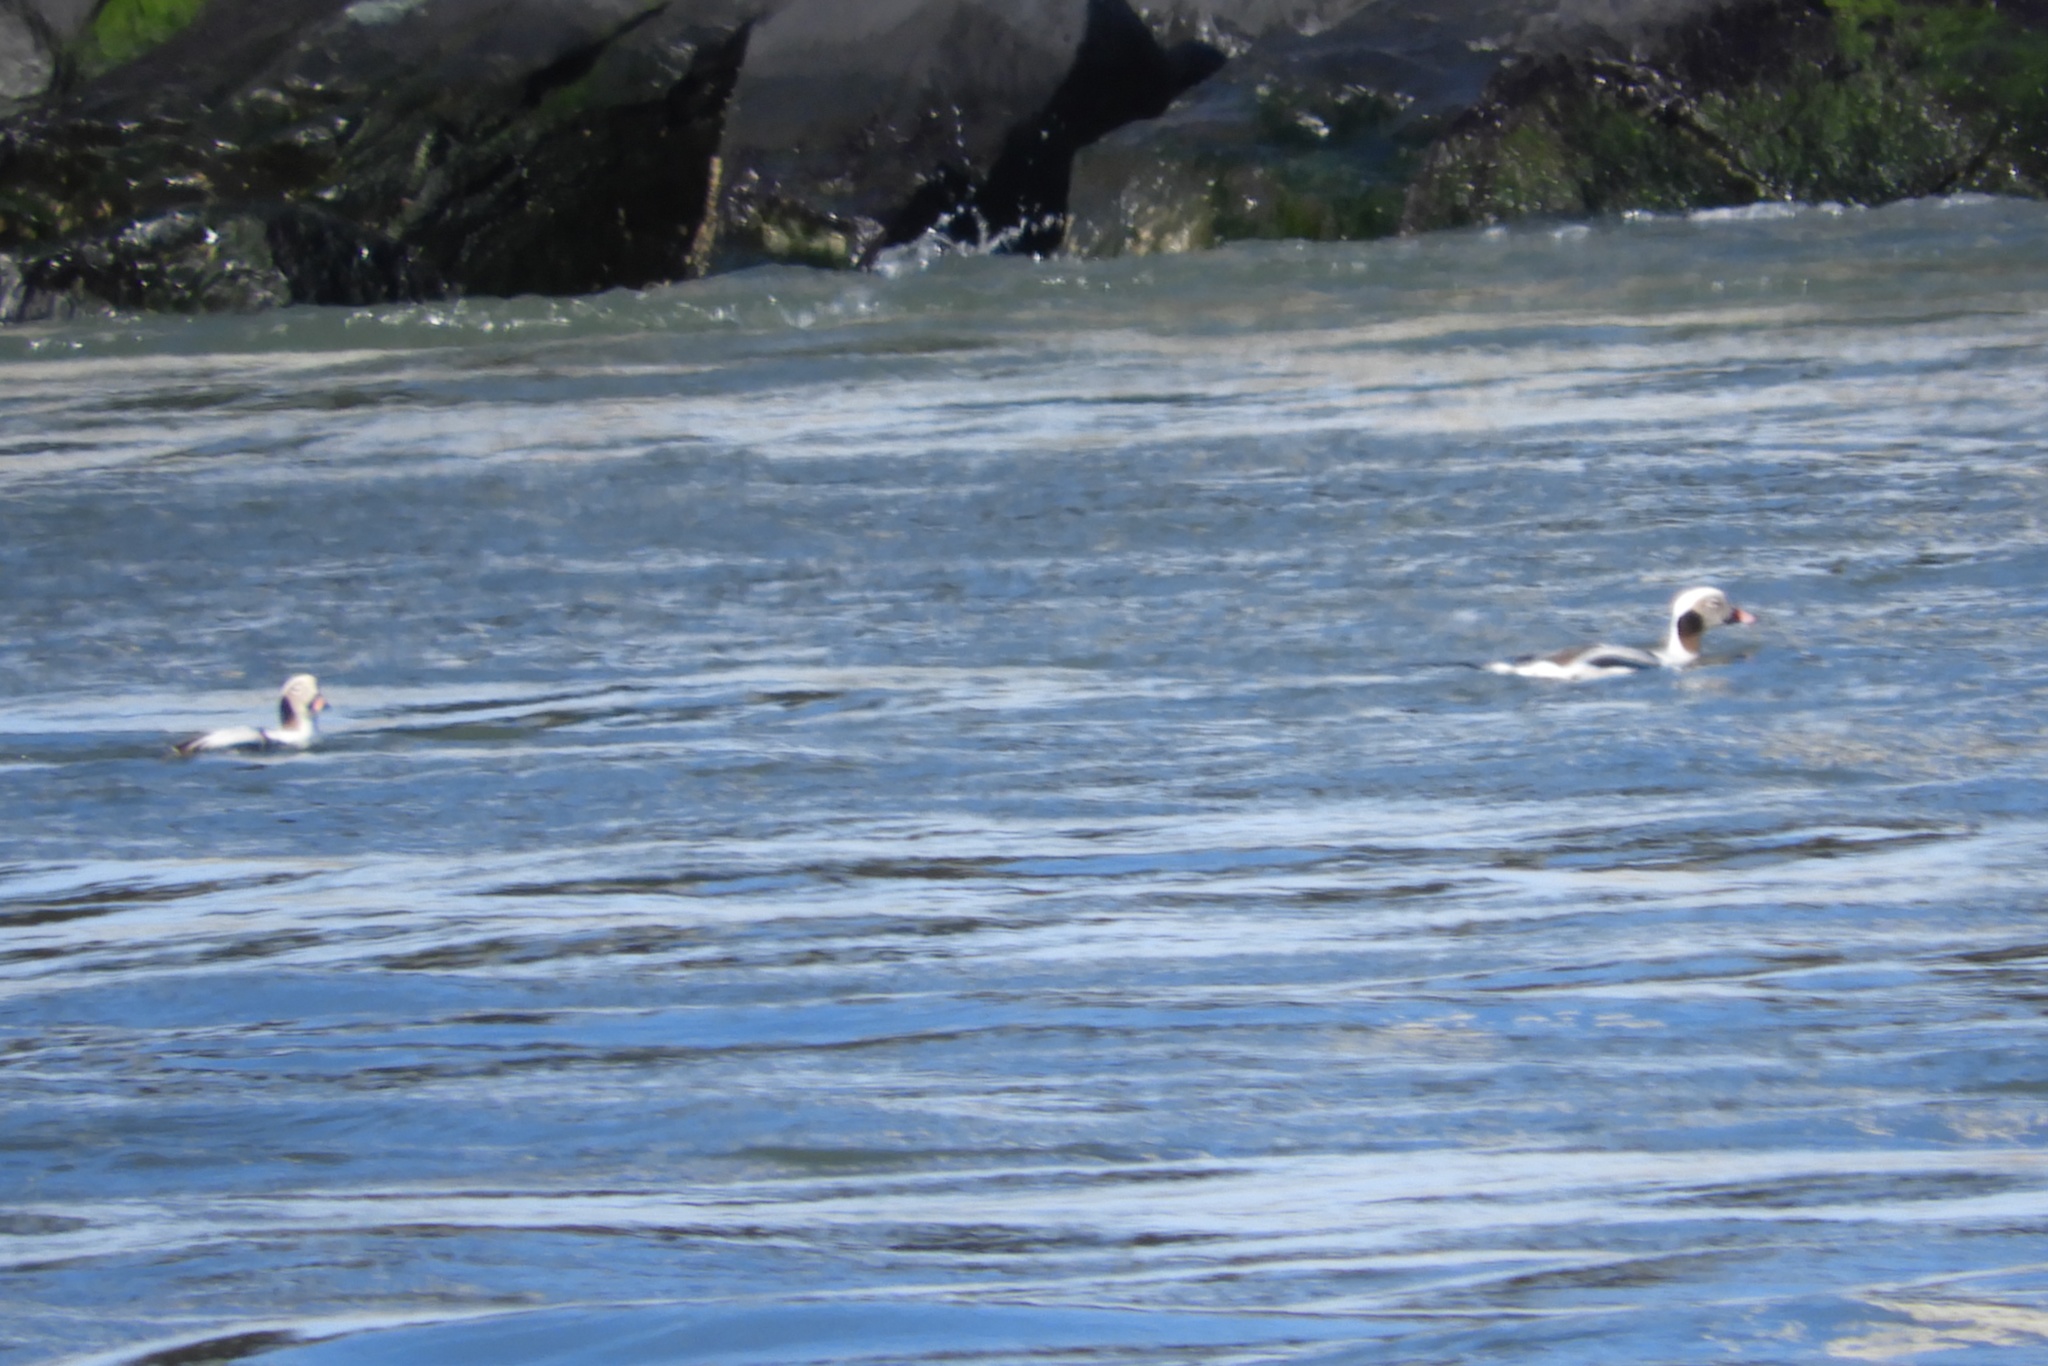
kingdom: Animalia
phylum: Chordata
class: Aves
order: Anseriformes
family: Anatidae
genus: Clangula
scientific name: Clangula hyemalis
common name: Long-tailed duck
